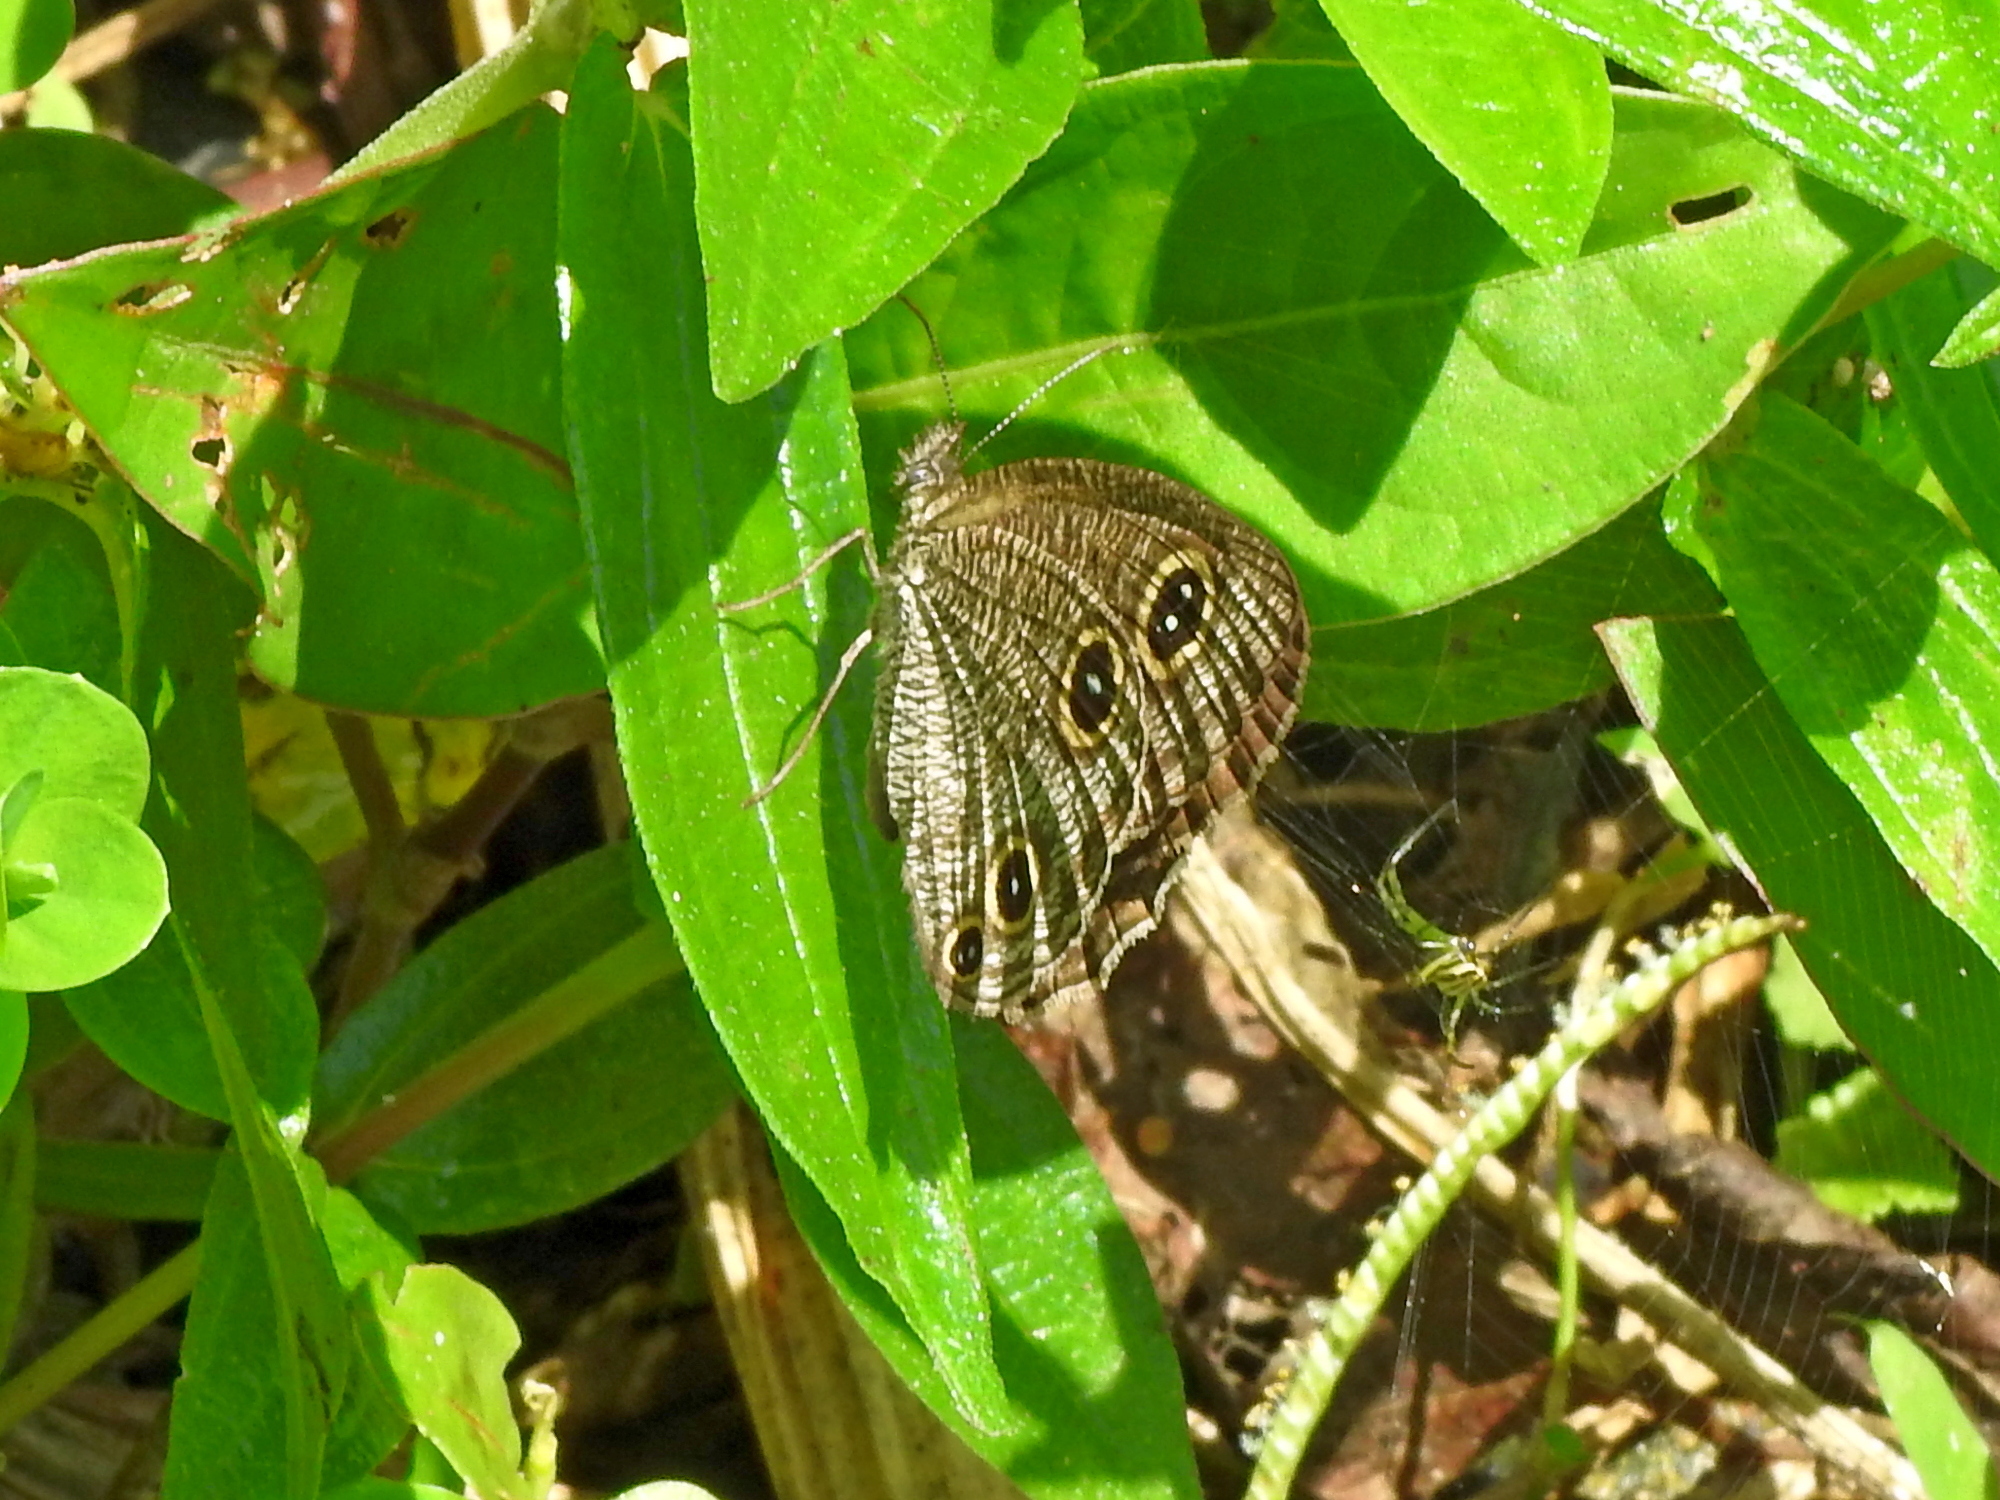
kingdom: Animalia
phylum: Arthropoda
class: Insecta
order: Lepidoptera
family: Nymphalidae
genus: Ypthima
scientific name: Ypthima multistriata
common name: Striated ringlet
